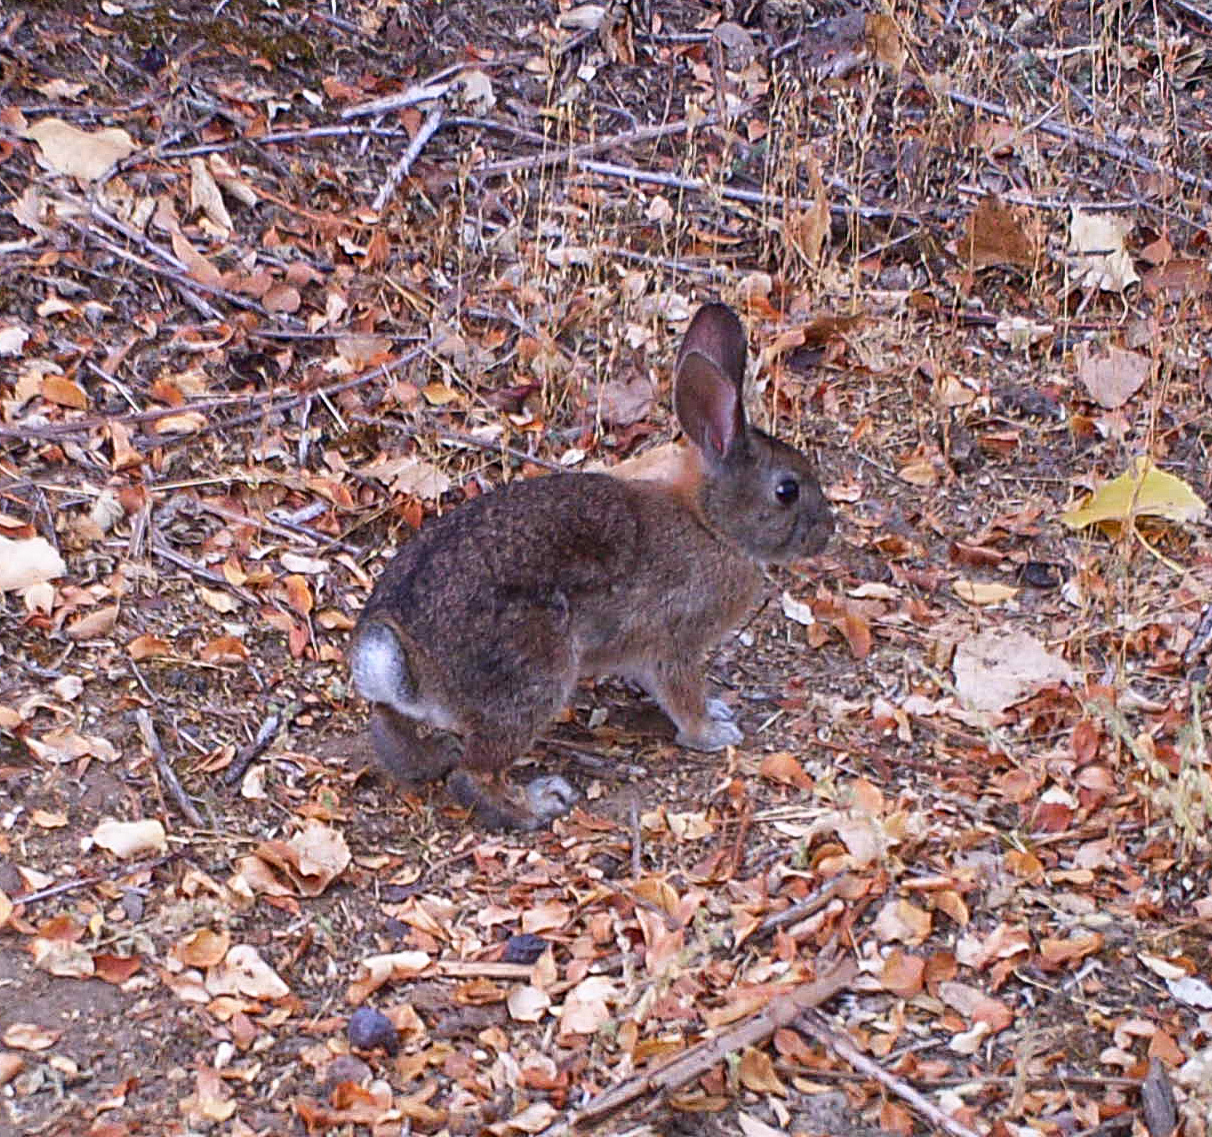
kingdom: Animalia
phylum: Chordata
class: Mammalia
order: Lagomorpha
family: Leporidae
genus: Sylvilagus
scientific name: Sylvilagus bachmani
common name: Brush rabbit
